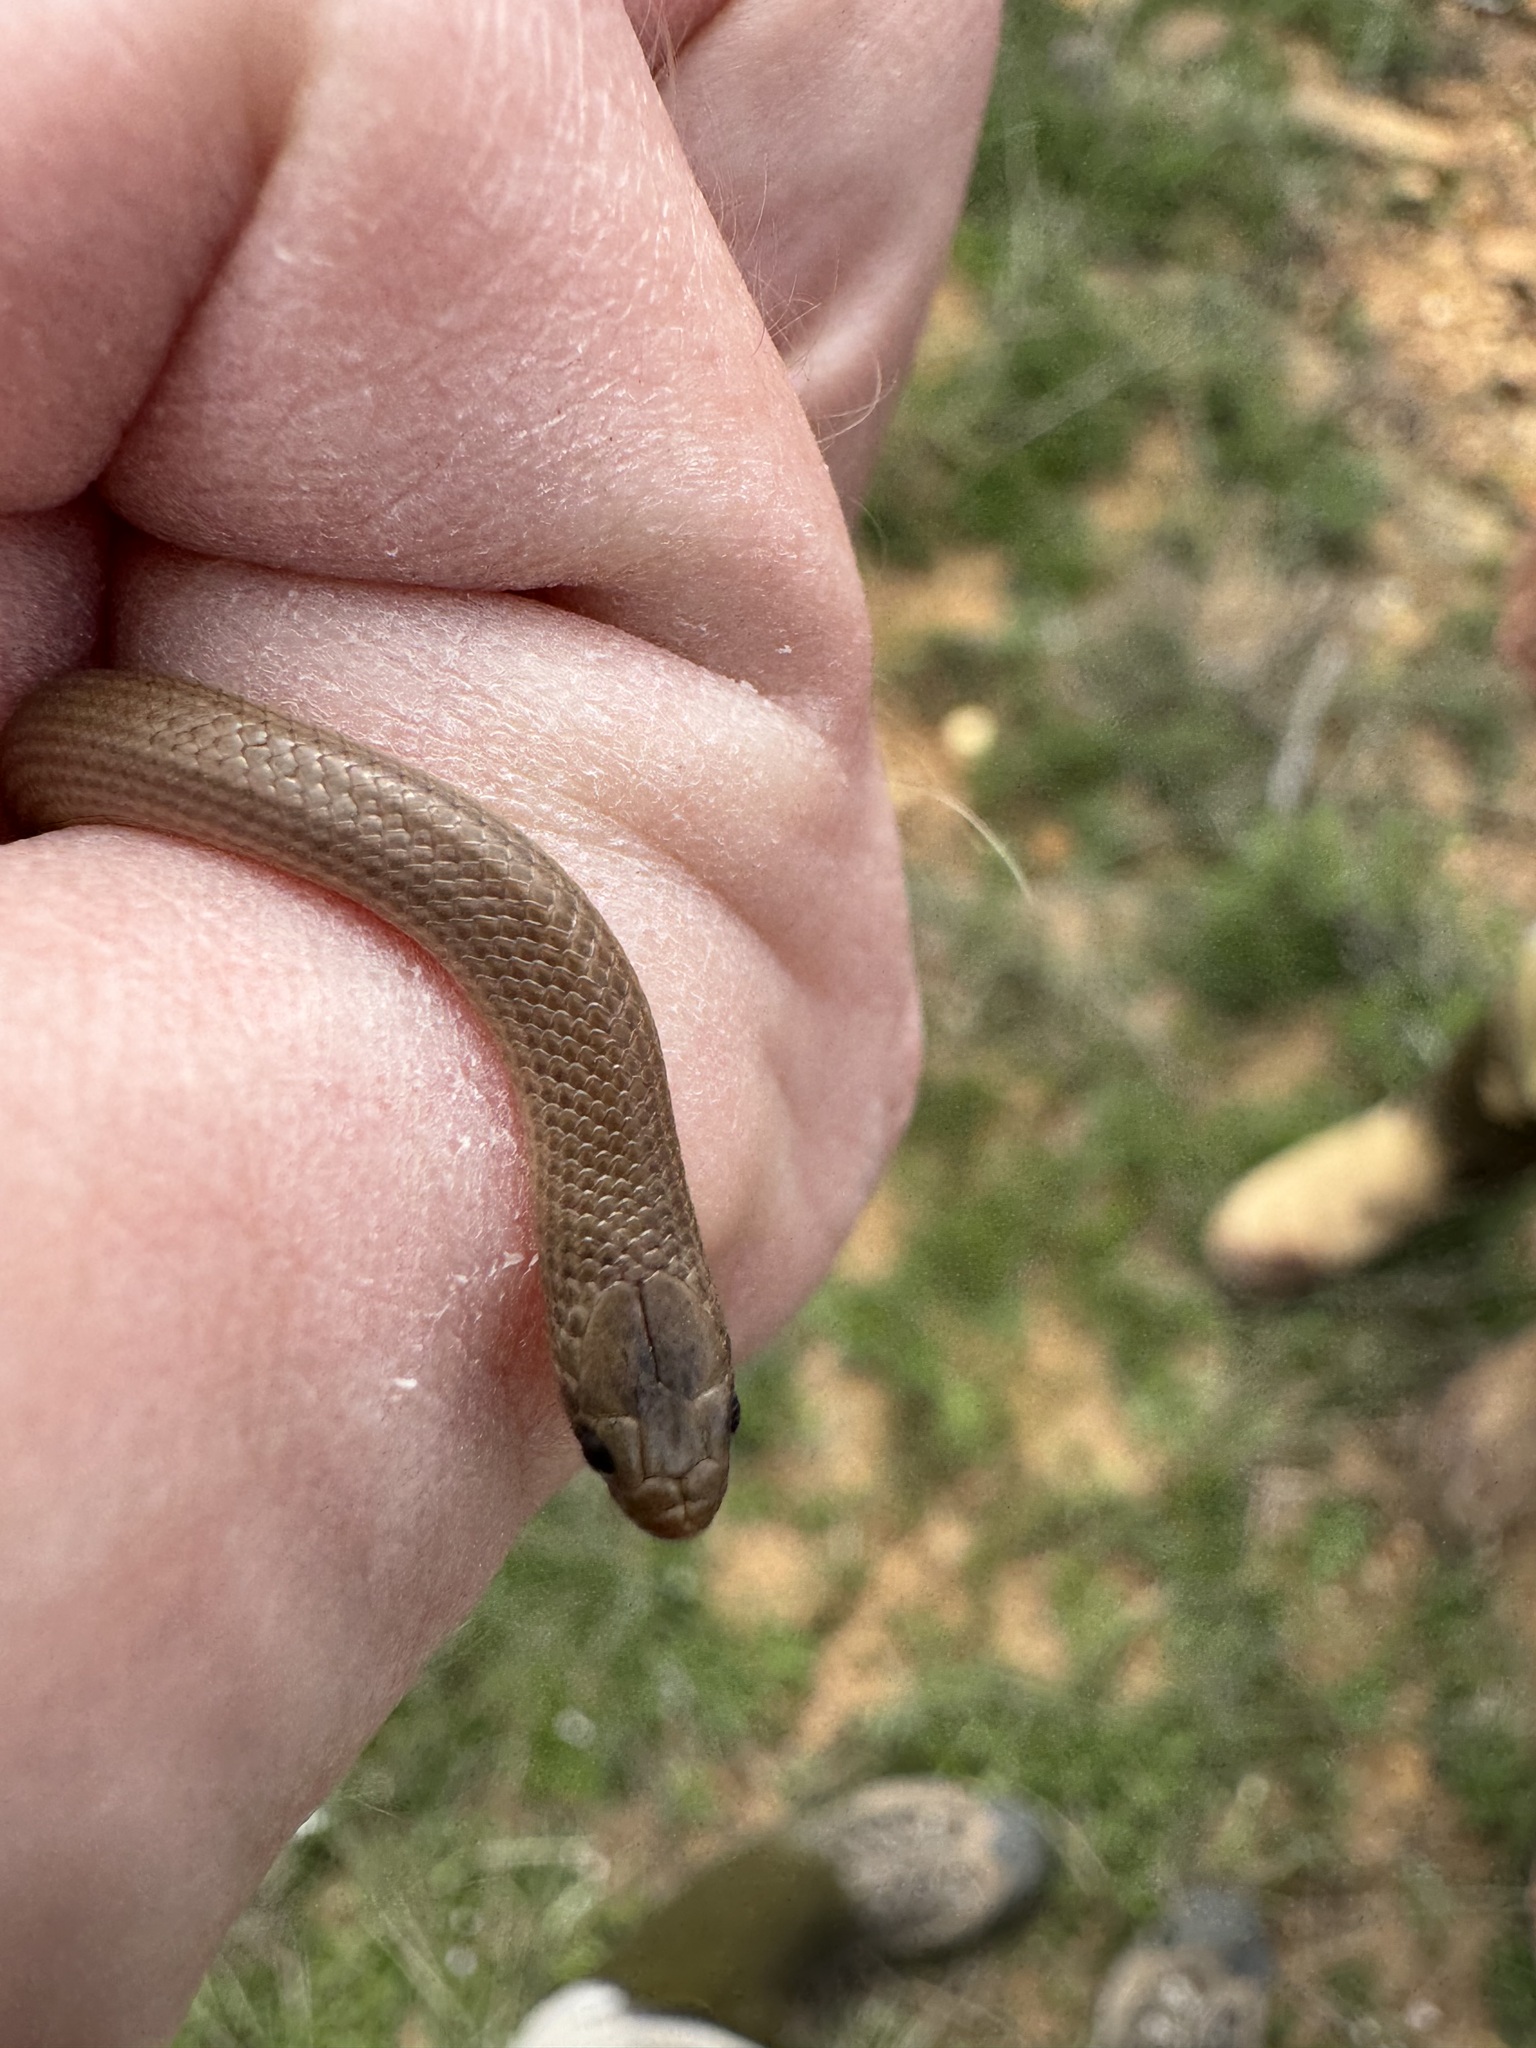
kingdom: Animalia
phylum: Chordata
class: Squamata
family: Colubridae
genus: Sonora
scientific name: Sonora semiannulata
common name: Ground snake
